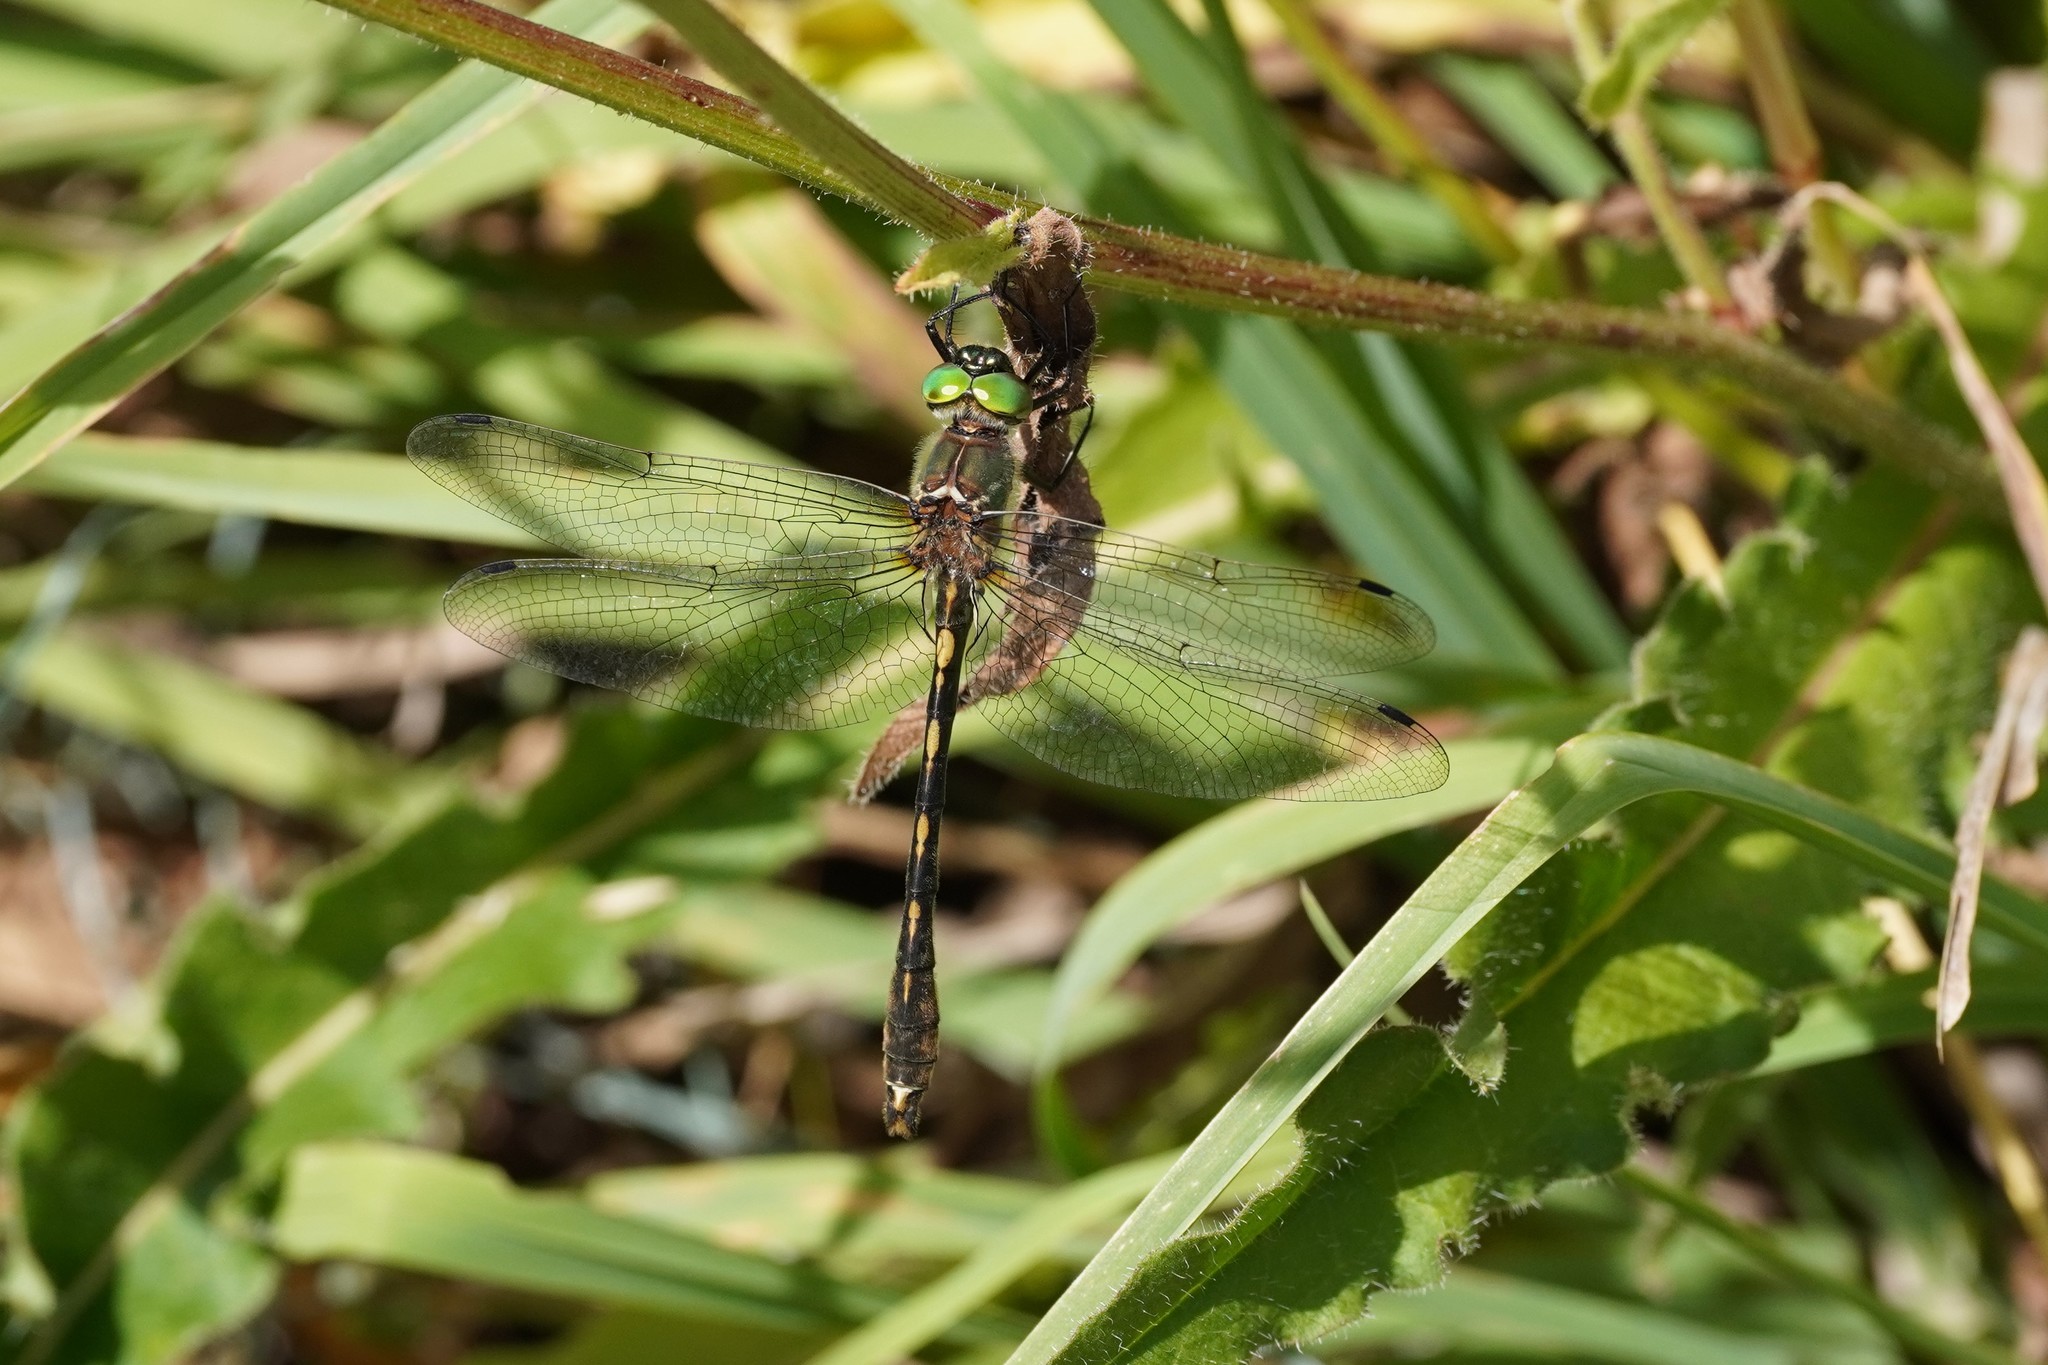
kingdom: Animalia
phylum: Arthropoda
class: Insecta
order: Odonata
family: Corduliidae
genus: Oxygastra
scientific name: Oxygastra curtisii
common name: Orange-spotted emerald
